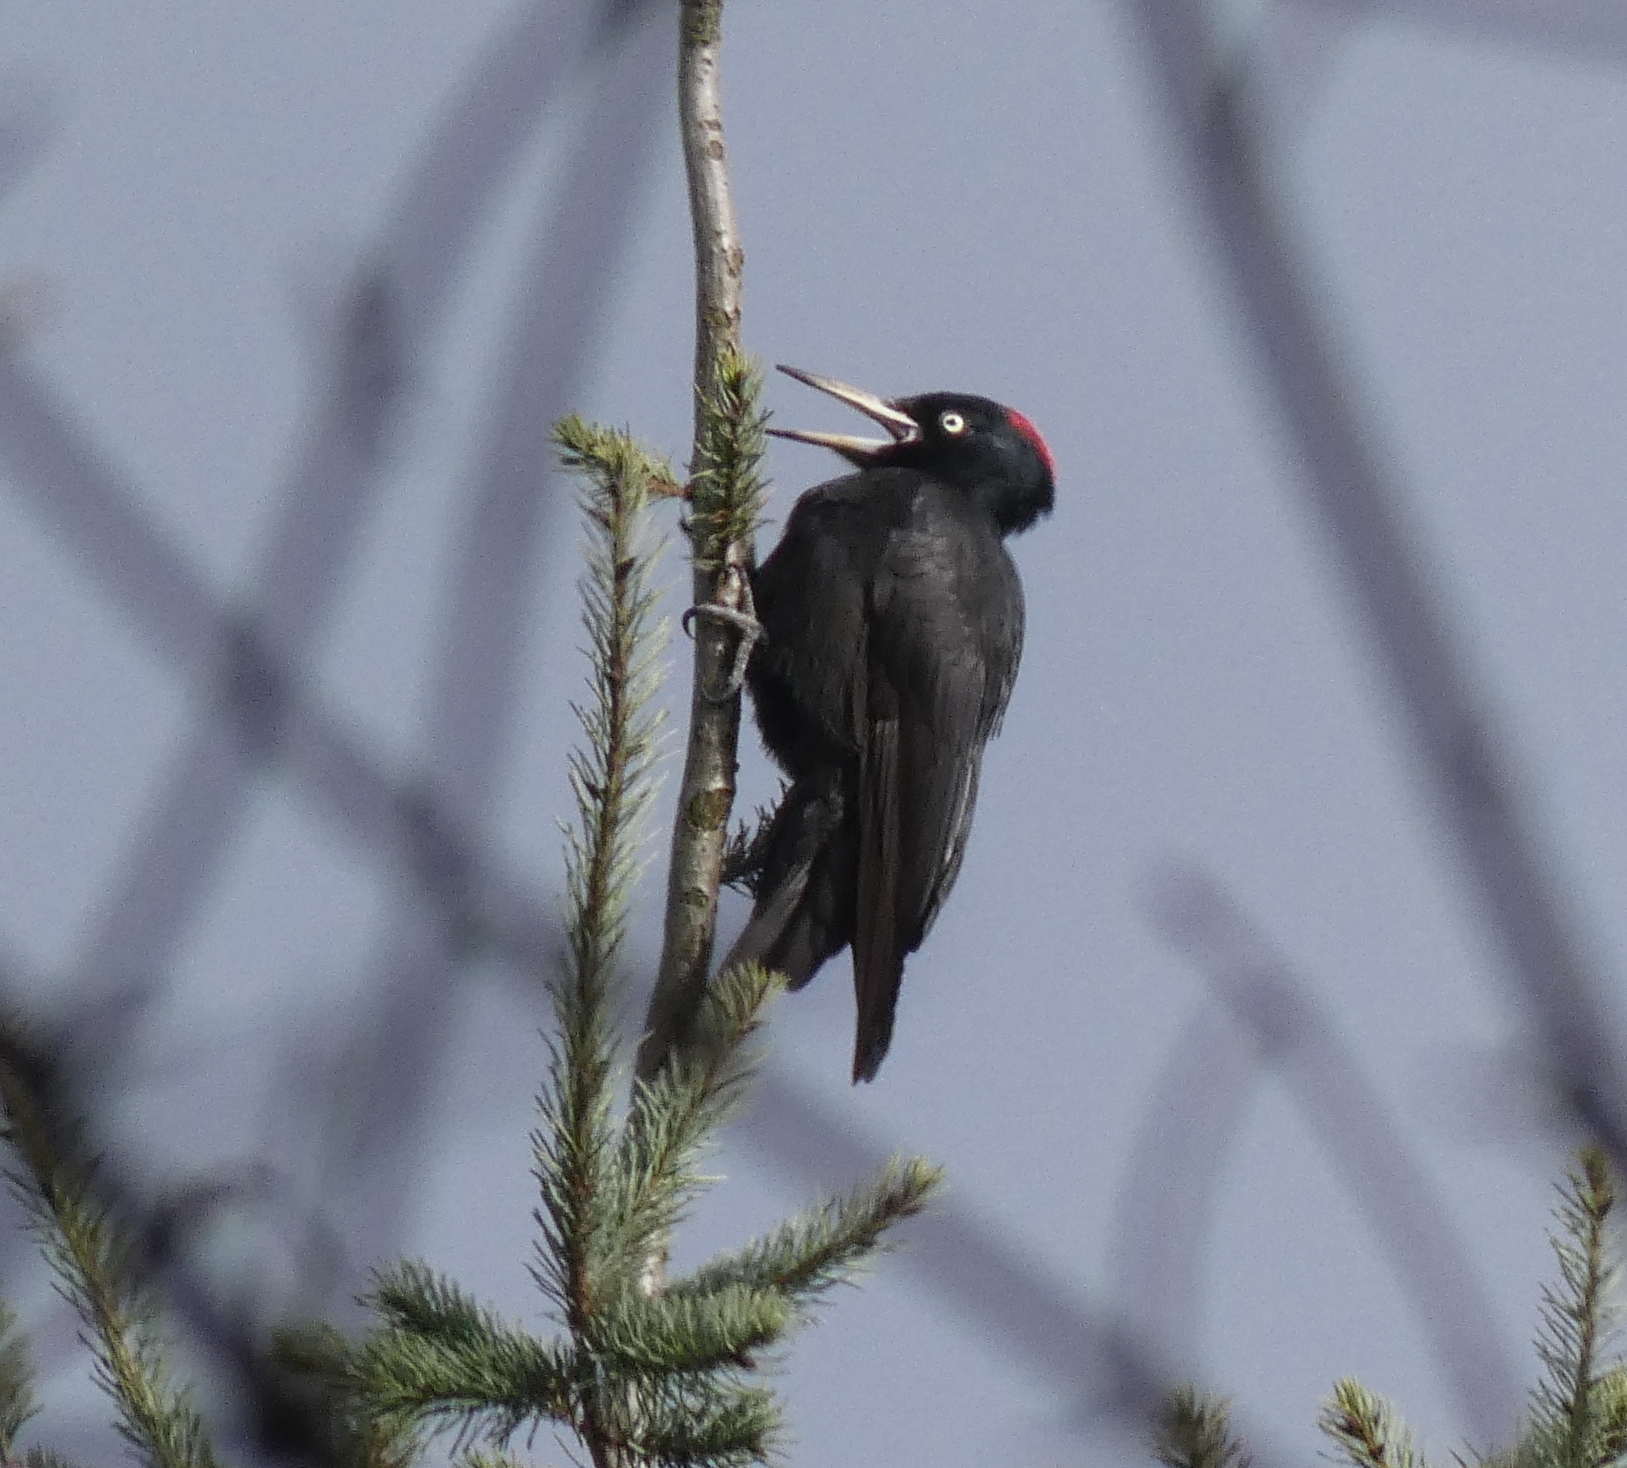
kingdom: Animalia
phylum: Chordata
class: Aves
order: Piciformes
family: Picidae
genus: Dryocopus
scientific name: Dryocopus martius
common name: Black woodpecker
